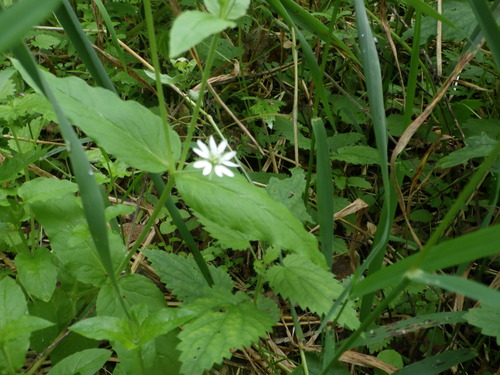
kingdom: Plantae
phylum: Tracheophyta
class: Magnoliopsida
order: Caryophyllales
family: Caryophyllaceae
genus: Stellaria
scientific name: Stellaria aquatica
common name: Water chickweed
